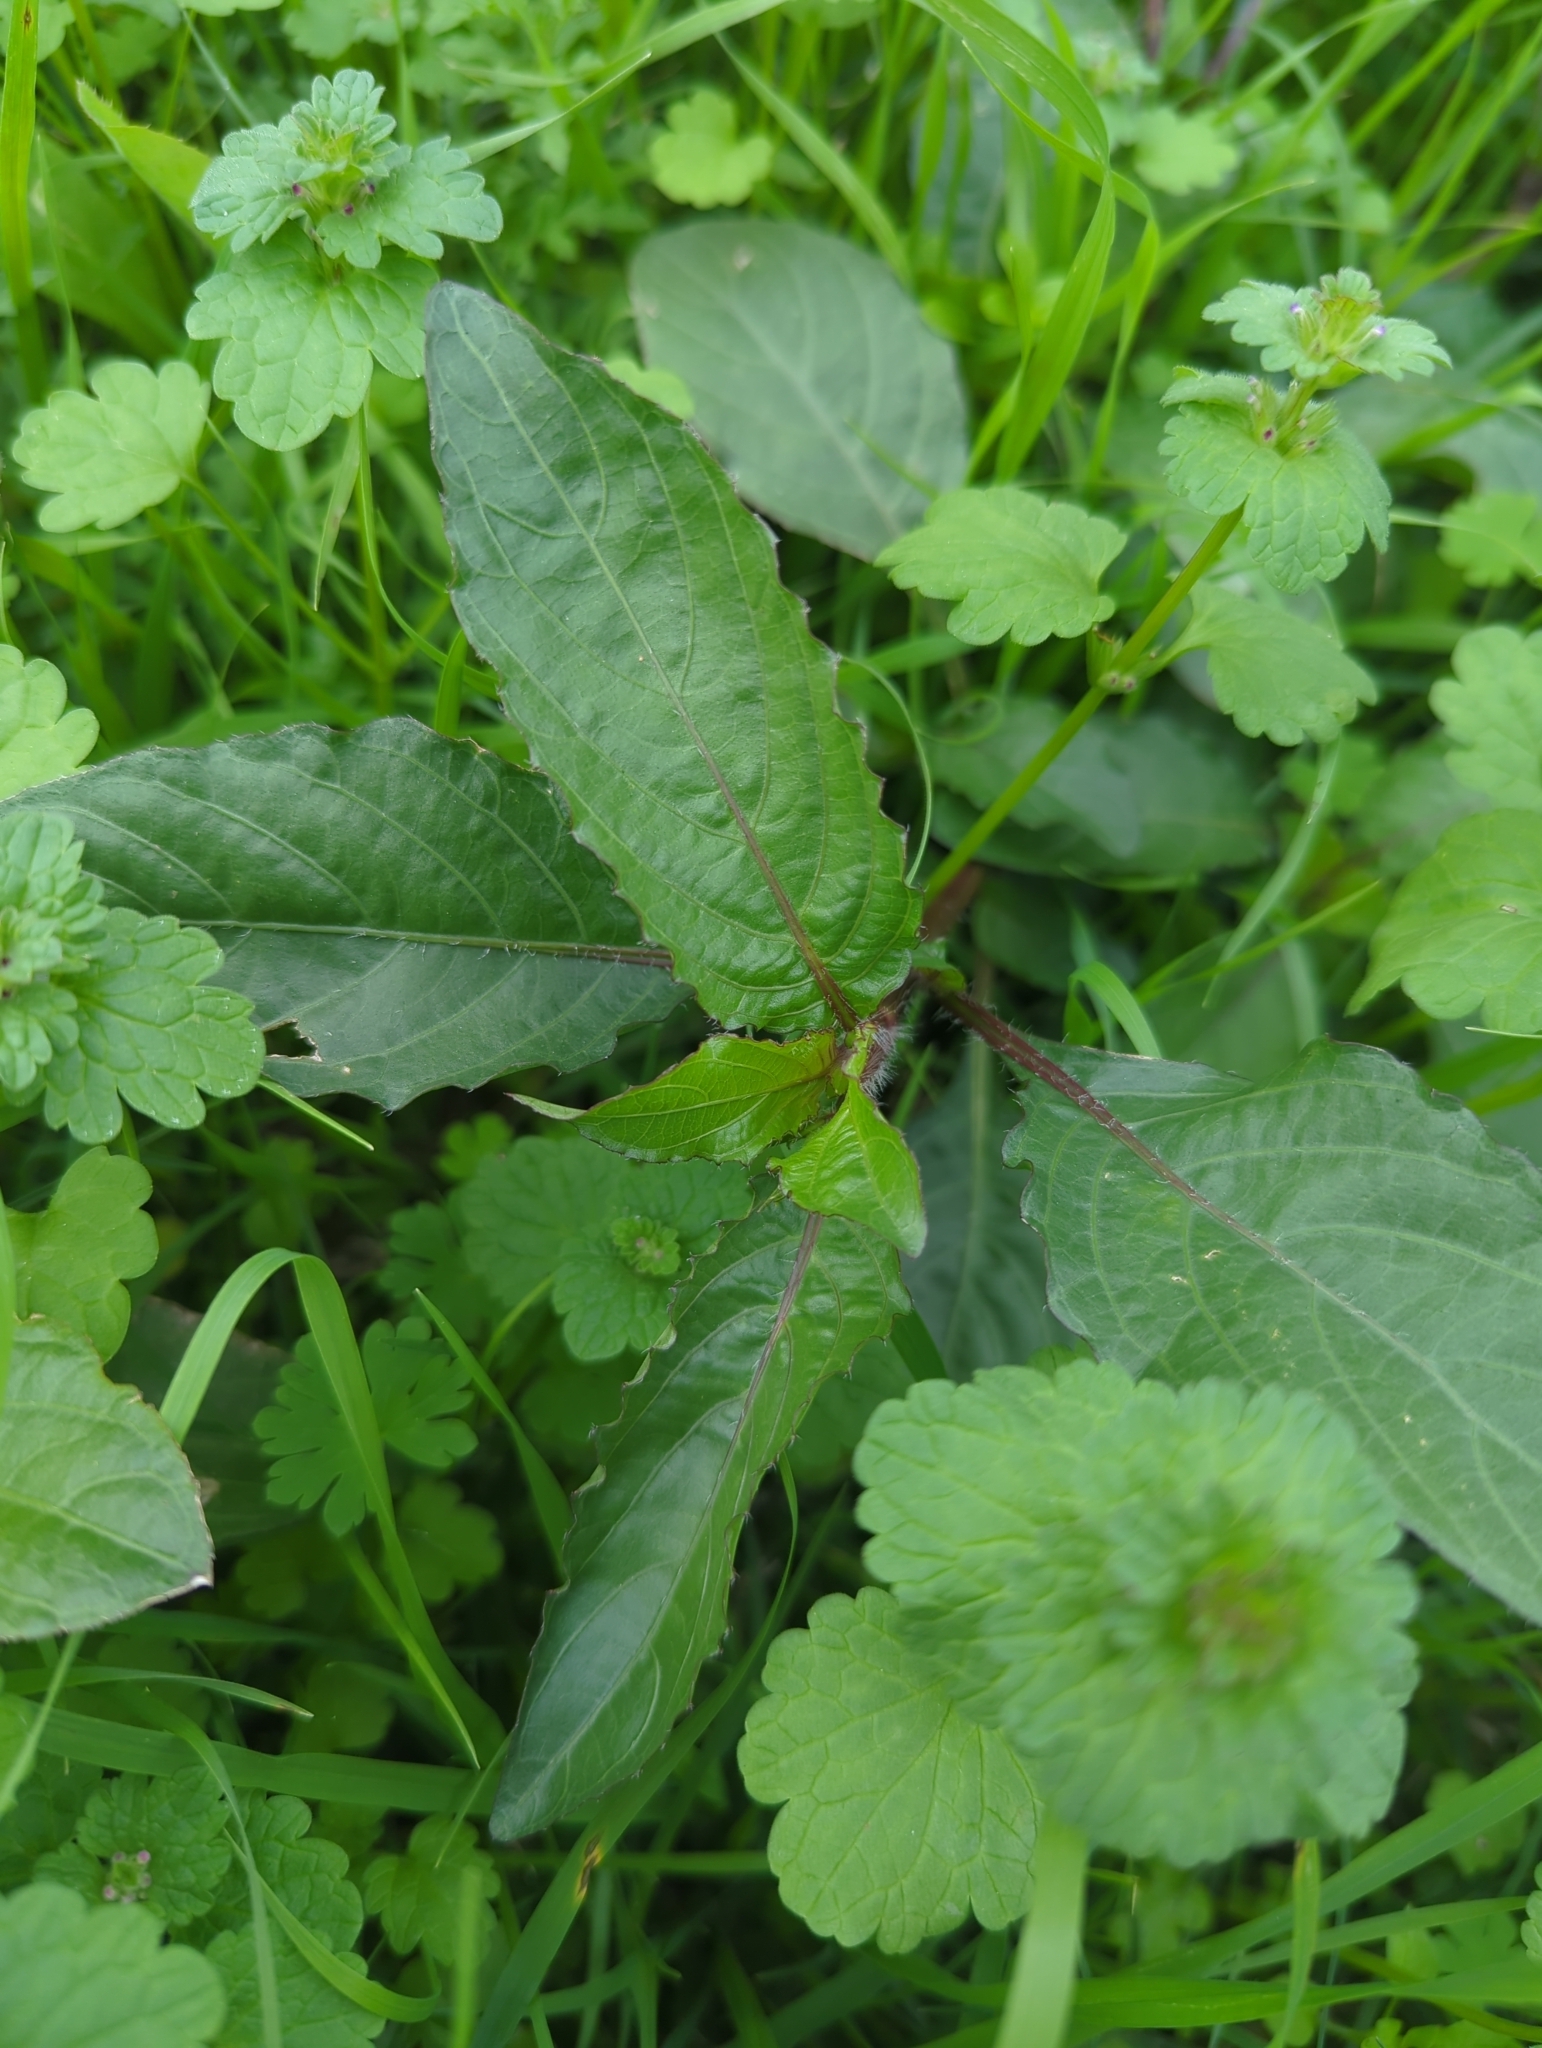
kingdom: Plantae
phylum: Tracheophyta
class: Magnoliopsida
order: Lamiales
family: Acanthaceae
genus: Ruellia
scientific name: Ruellia ciliatiflora
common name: Hairyflower wild petunia
